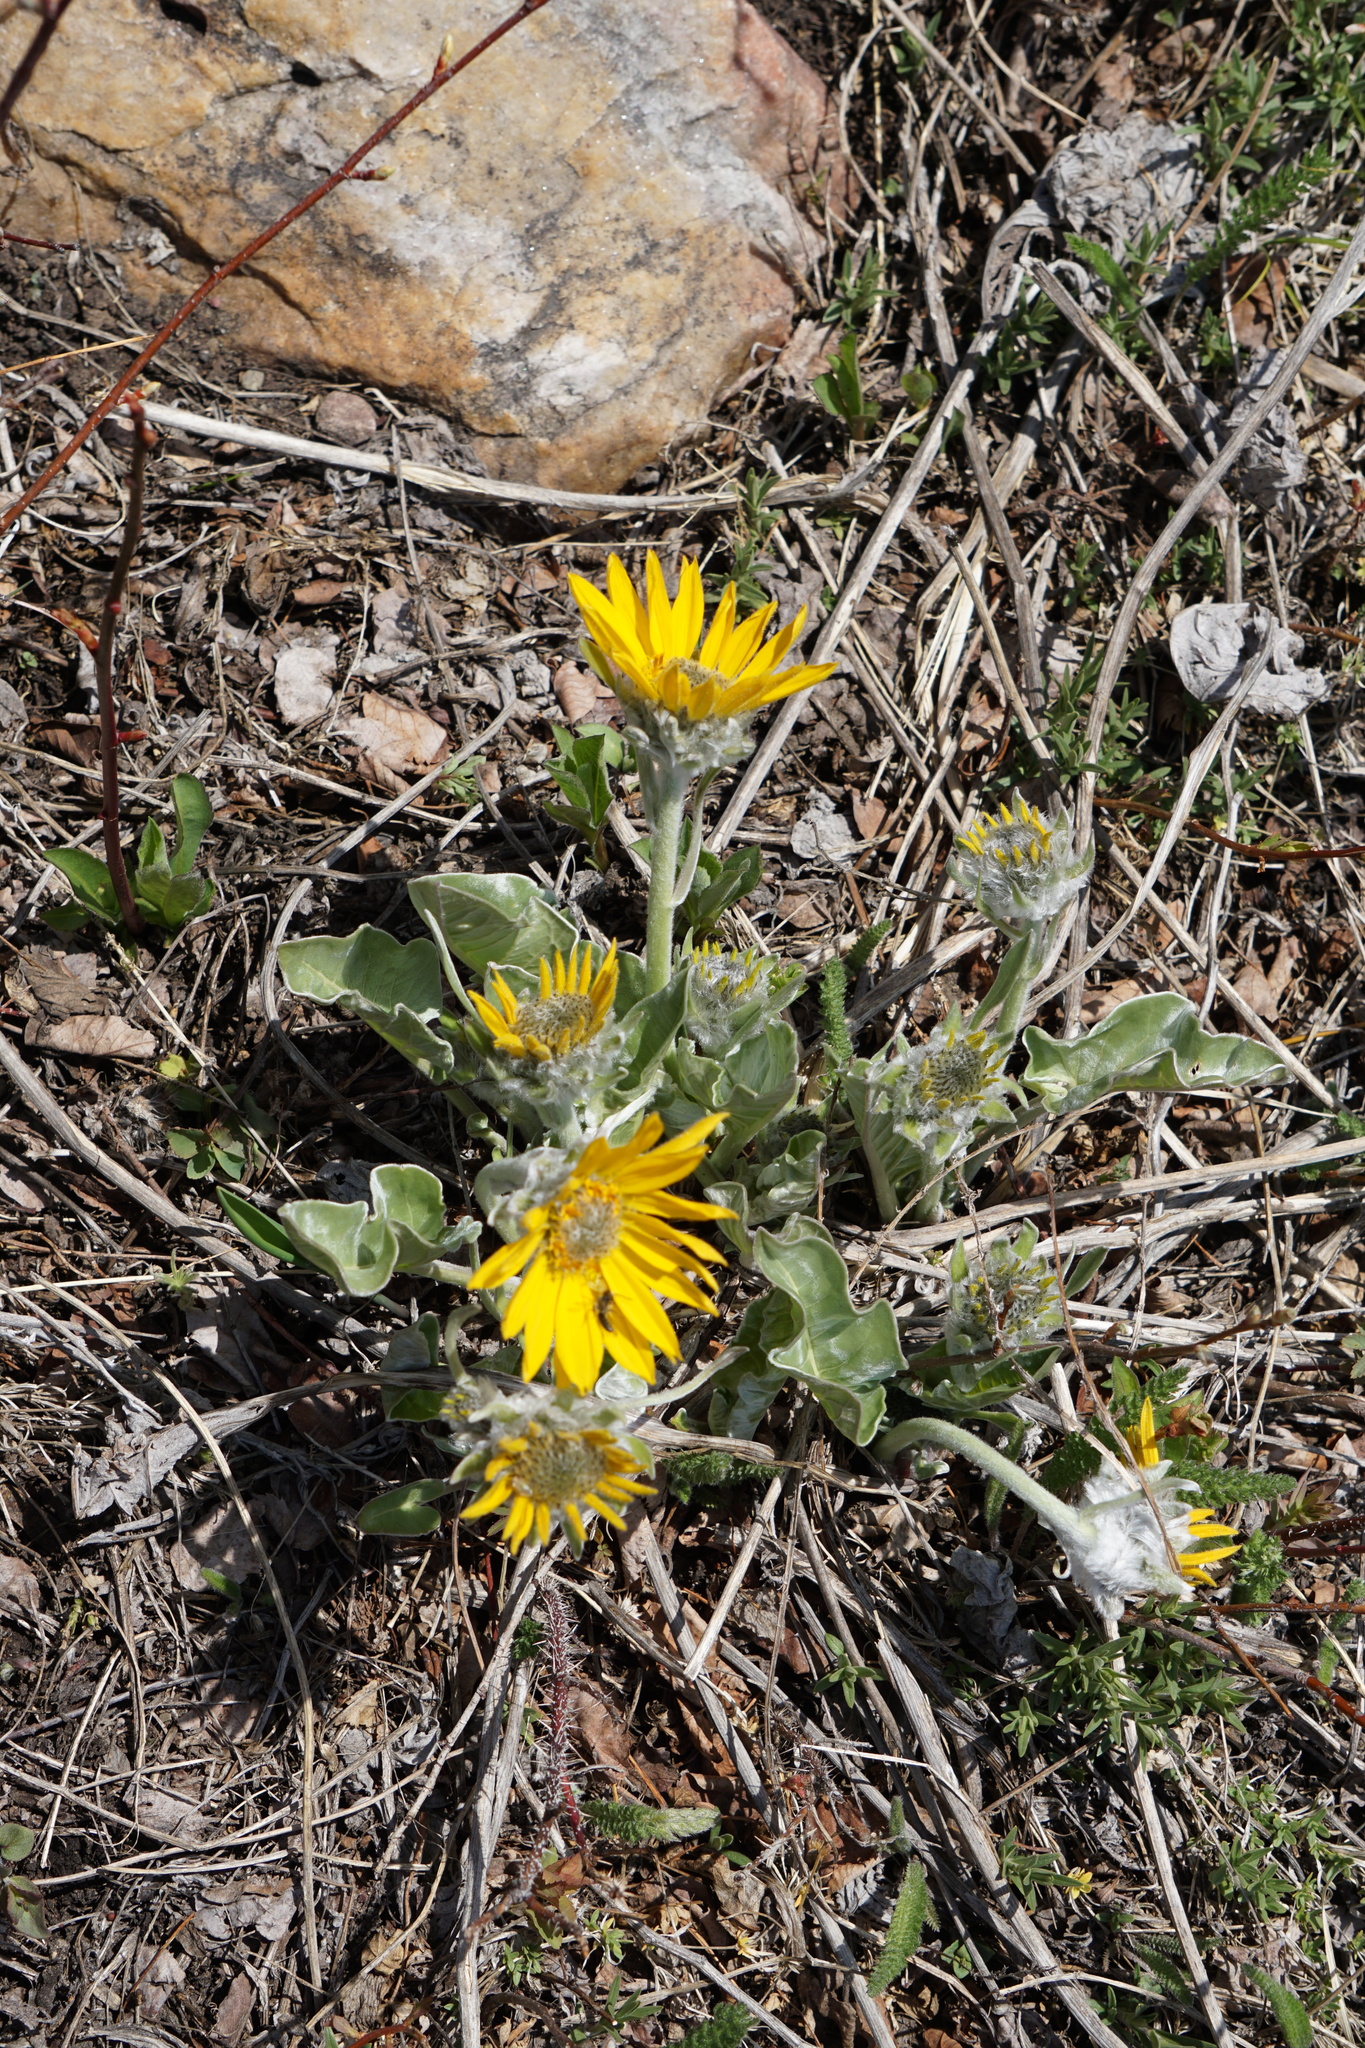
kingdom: Plantae
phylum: Tracheophyta
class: Magnoliopsida
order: Asterales
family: Asteraceae
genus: Wyethia
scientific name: Wyethia sagittata
